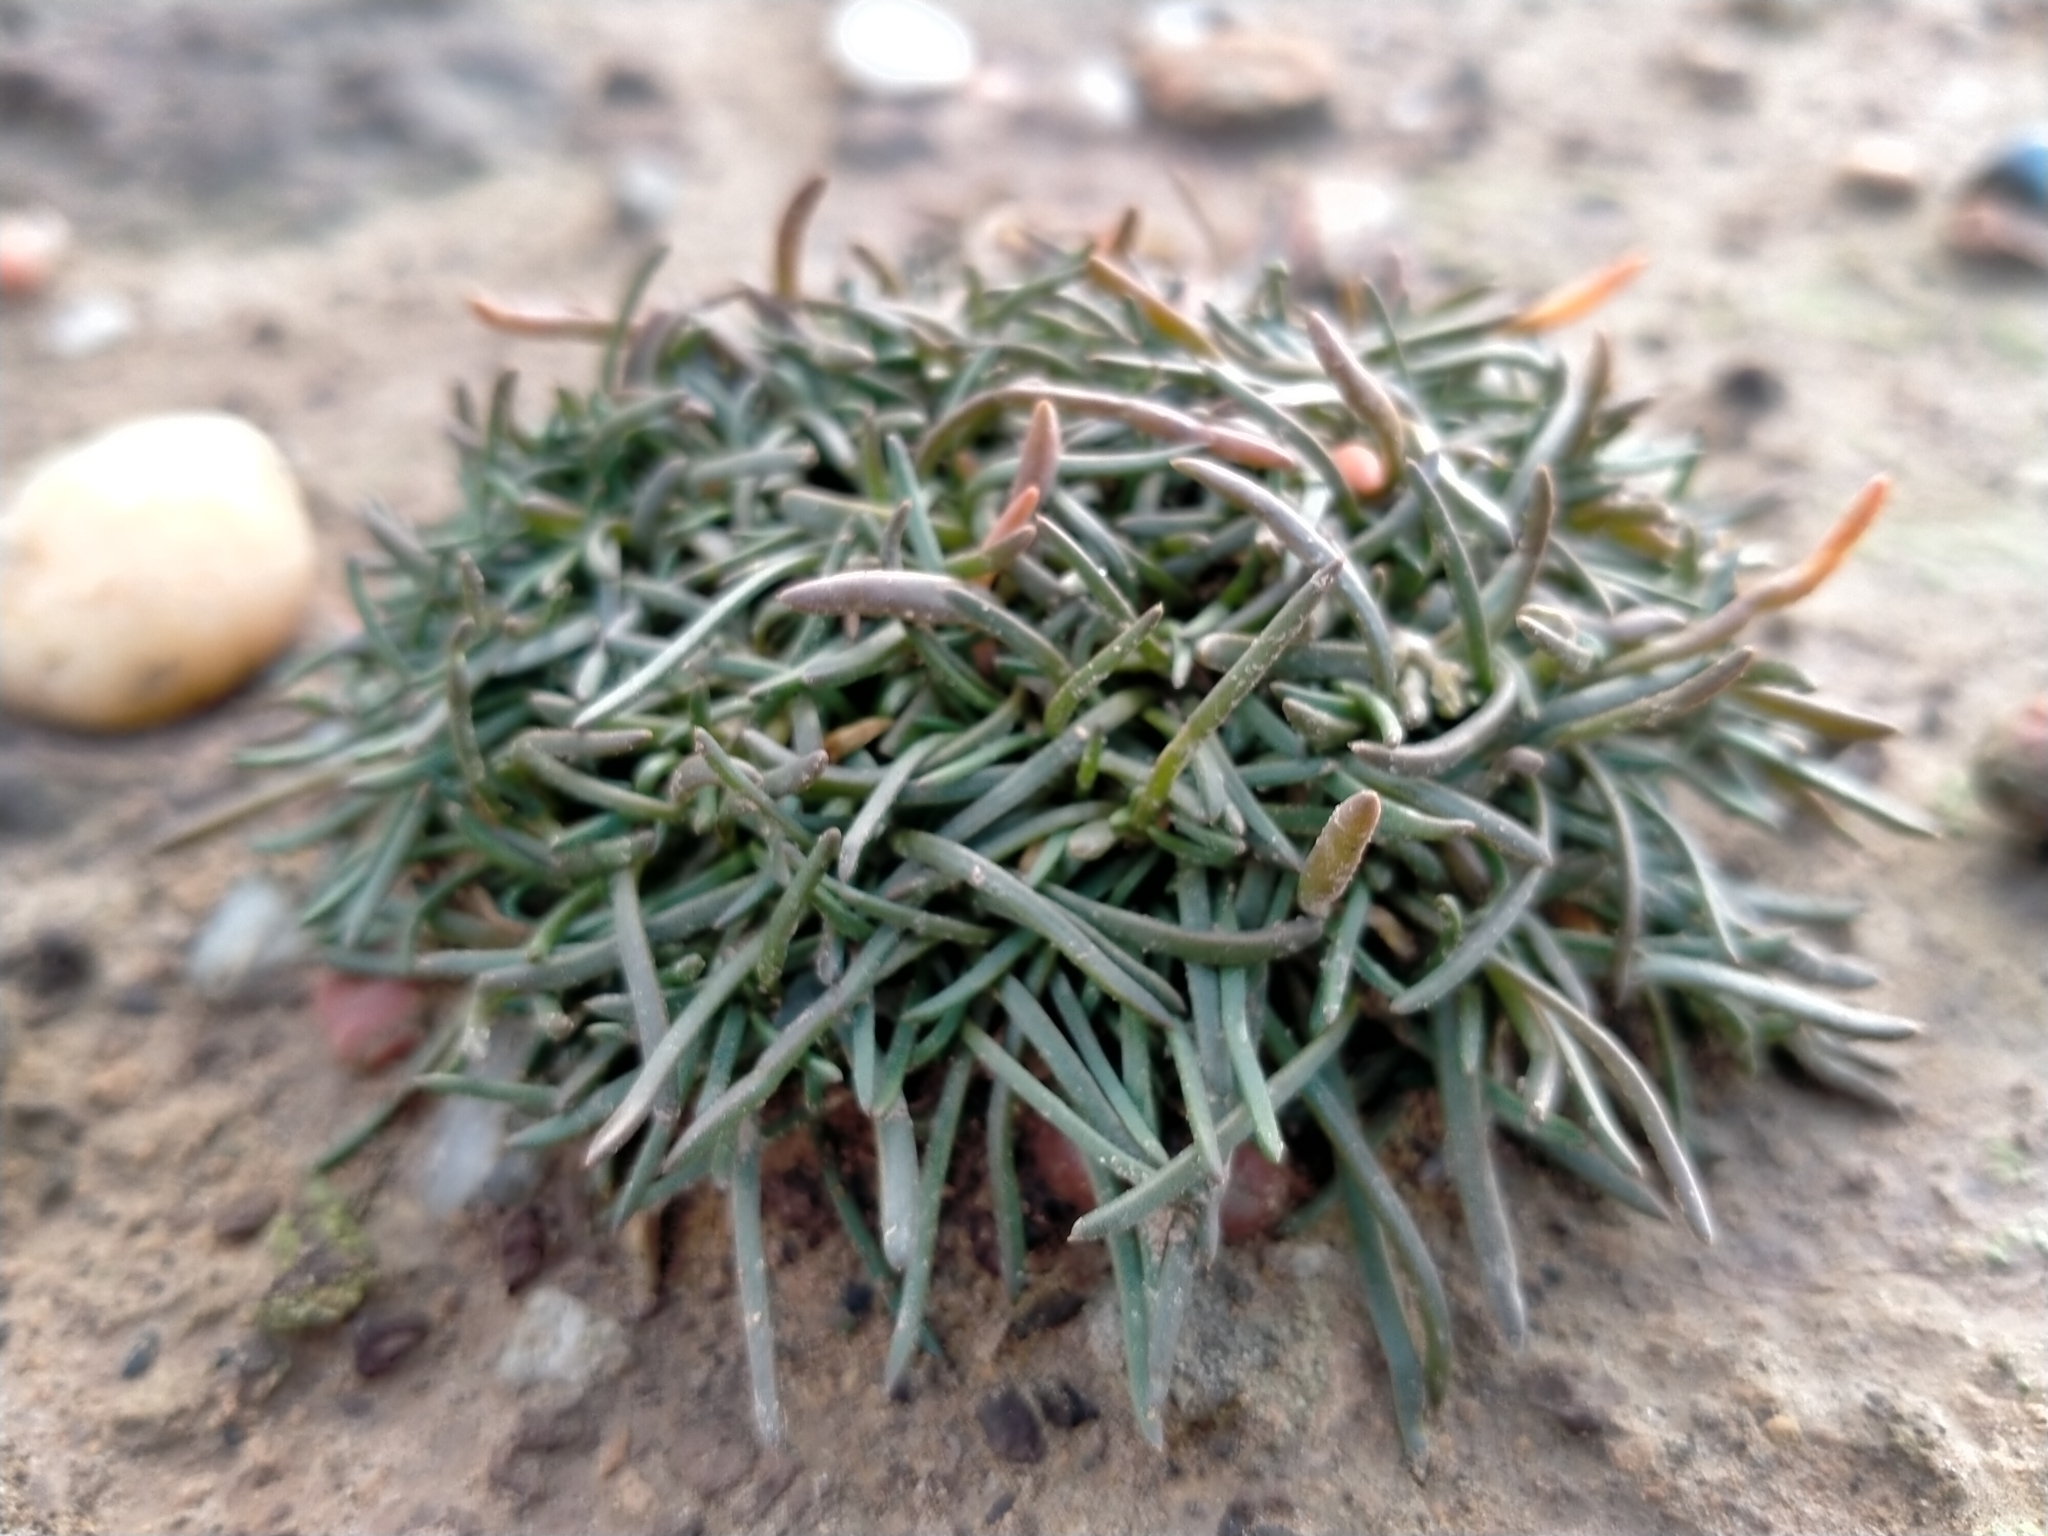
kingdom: Plantae
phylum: Tracheophyta
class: Magnoliopsida
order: Caryophyllales
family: Caryophyllaceae
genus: Spergularia
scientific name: Spergularia rubra
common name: Red sand-spurrey
